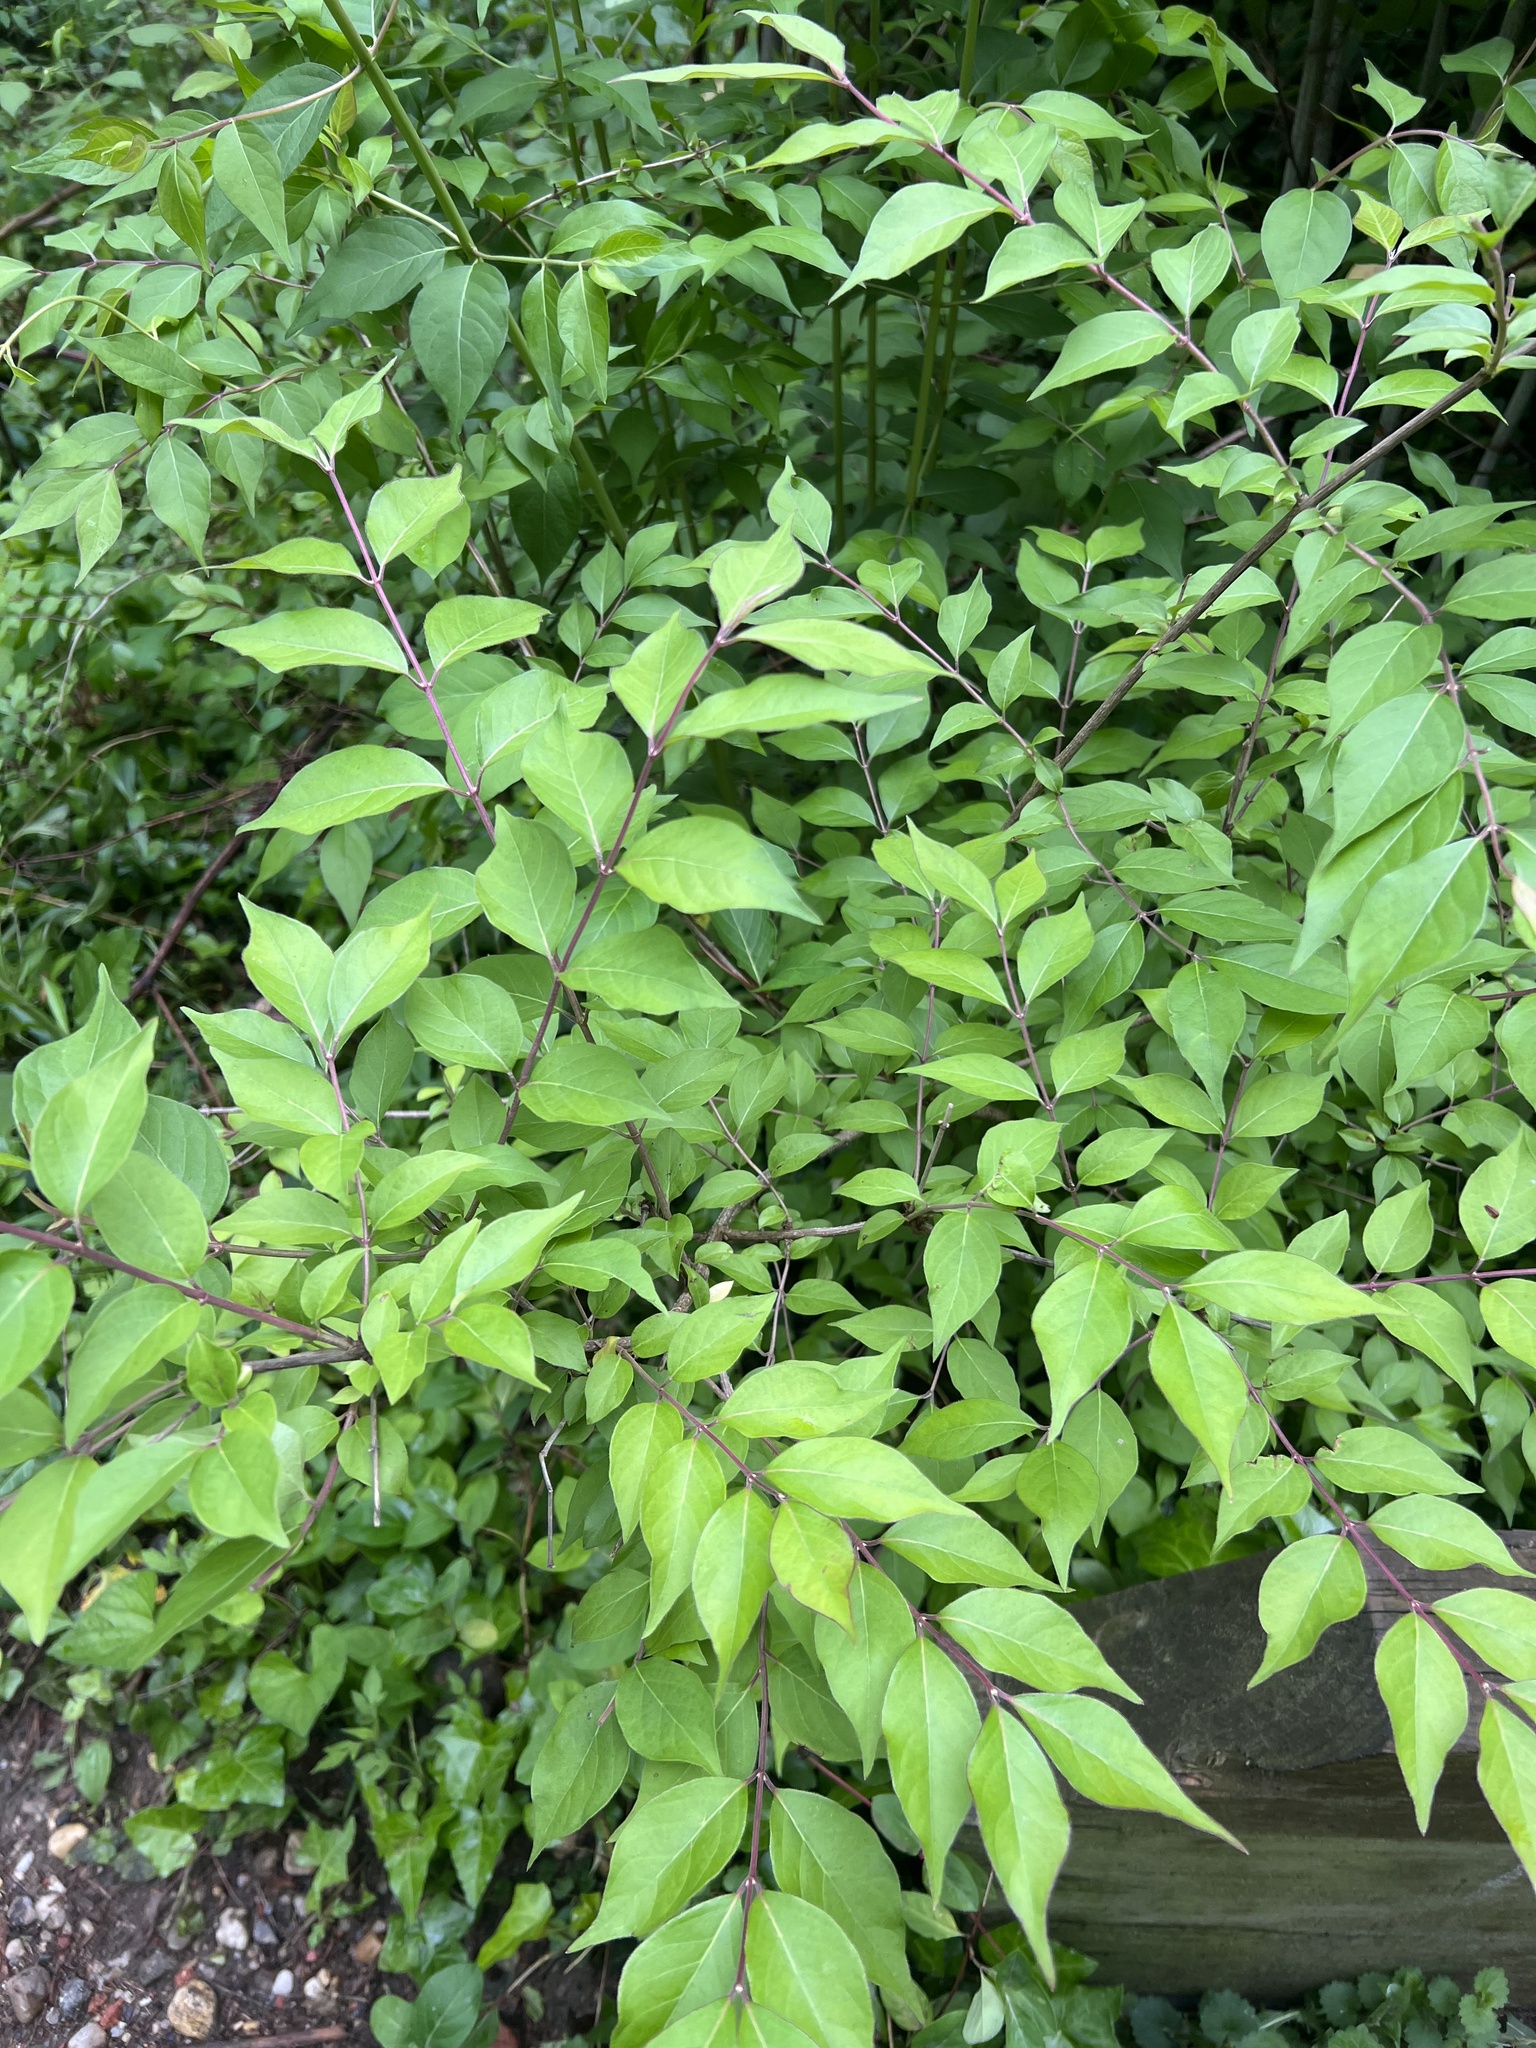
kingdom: Plantae
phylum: Tracheophyta
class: Magnoliopsida
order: Dipsacales
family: Caprifoliaceae
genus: Lonicera
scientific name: Lonicera maackii
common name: Amur honeysuckle
